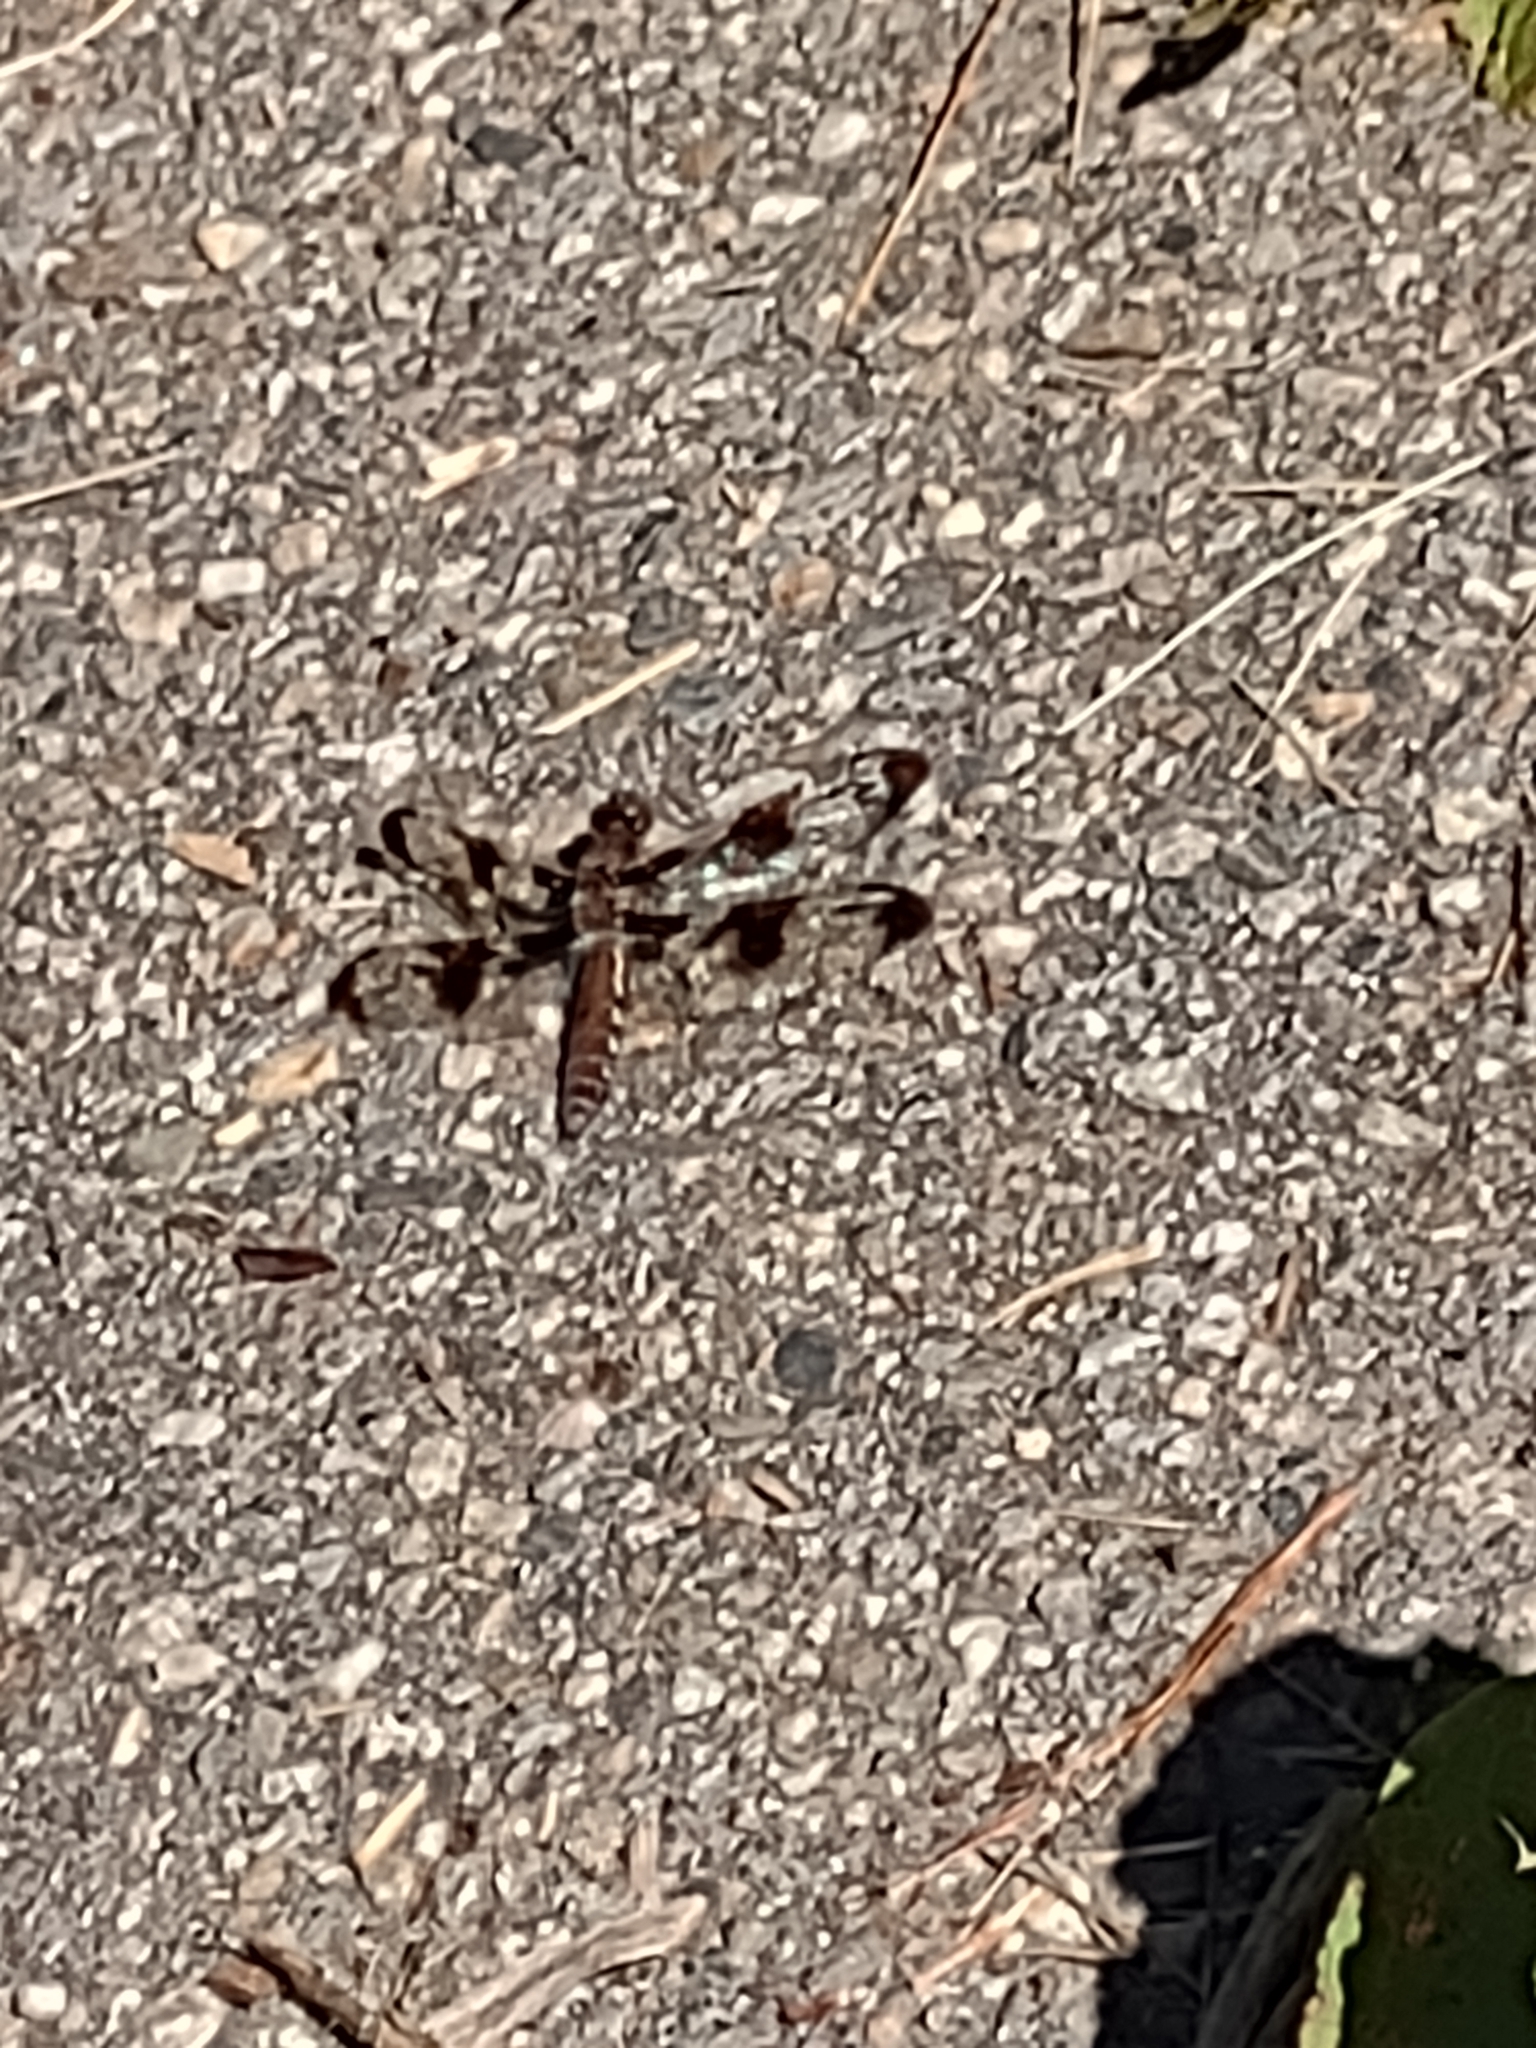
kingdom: Animalia
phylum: Arthropoda
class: Insecta
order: Odonata
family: Libellulidae
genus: Plathemis
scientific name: Plathemis lydia
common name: Common whitetail
